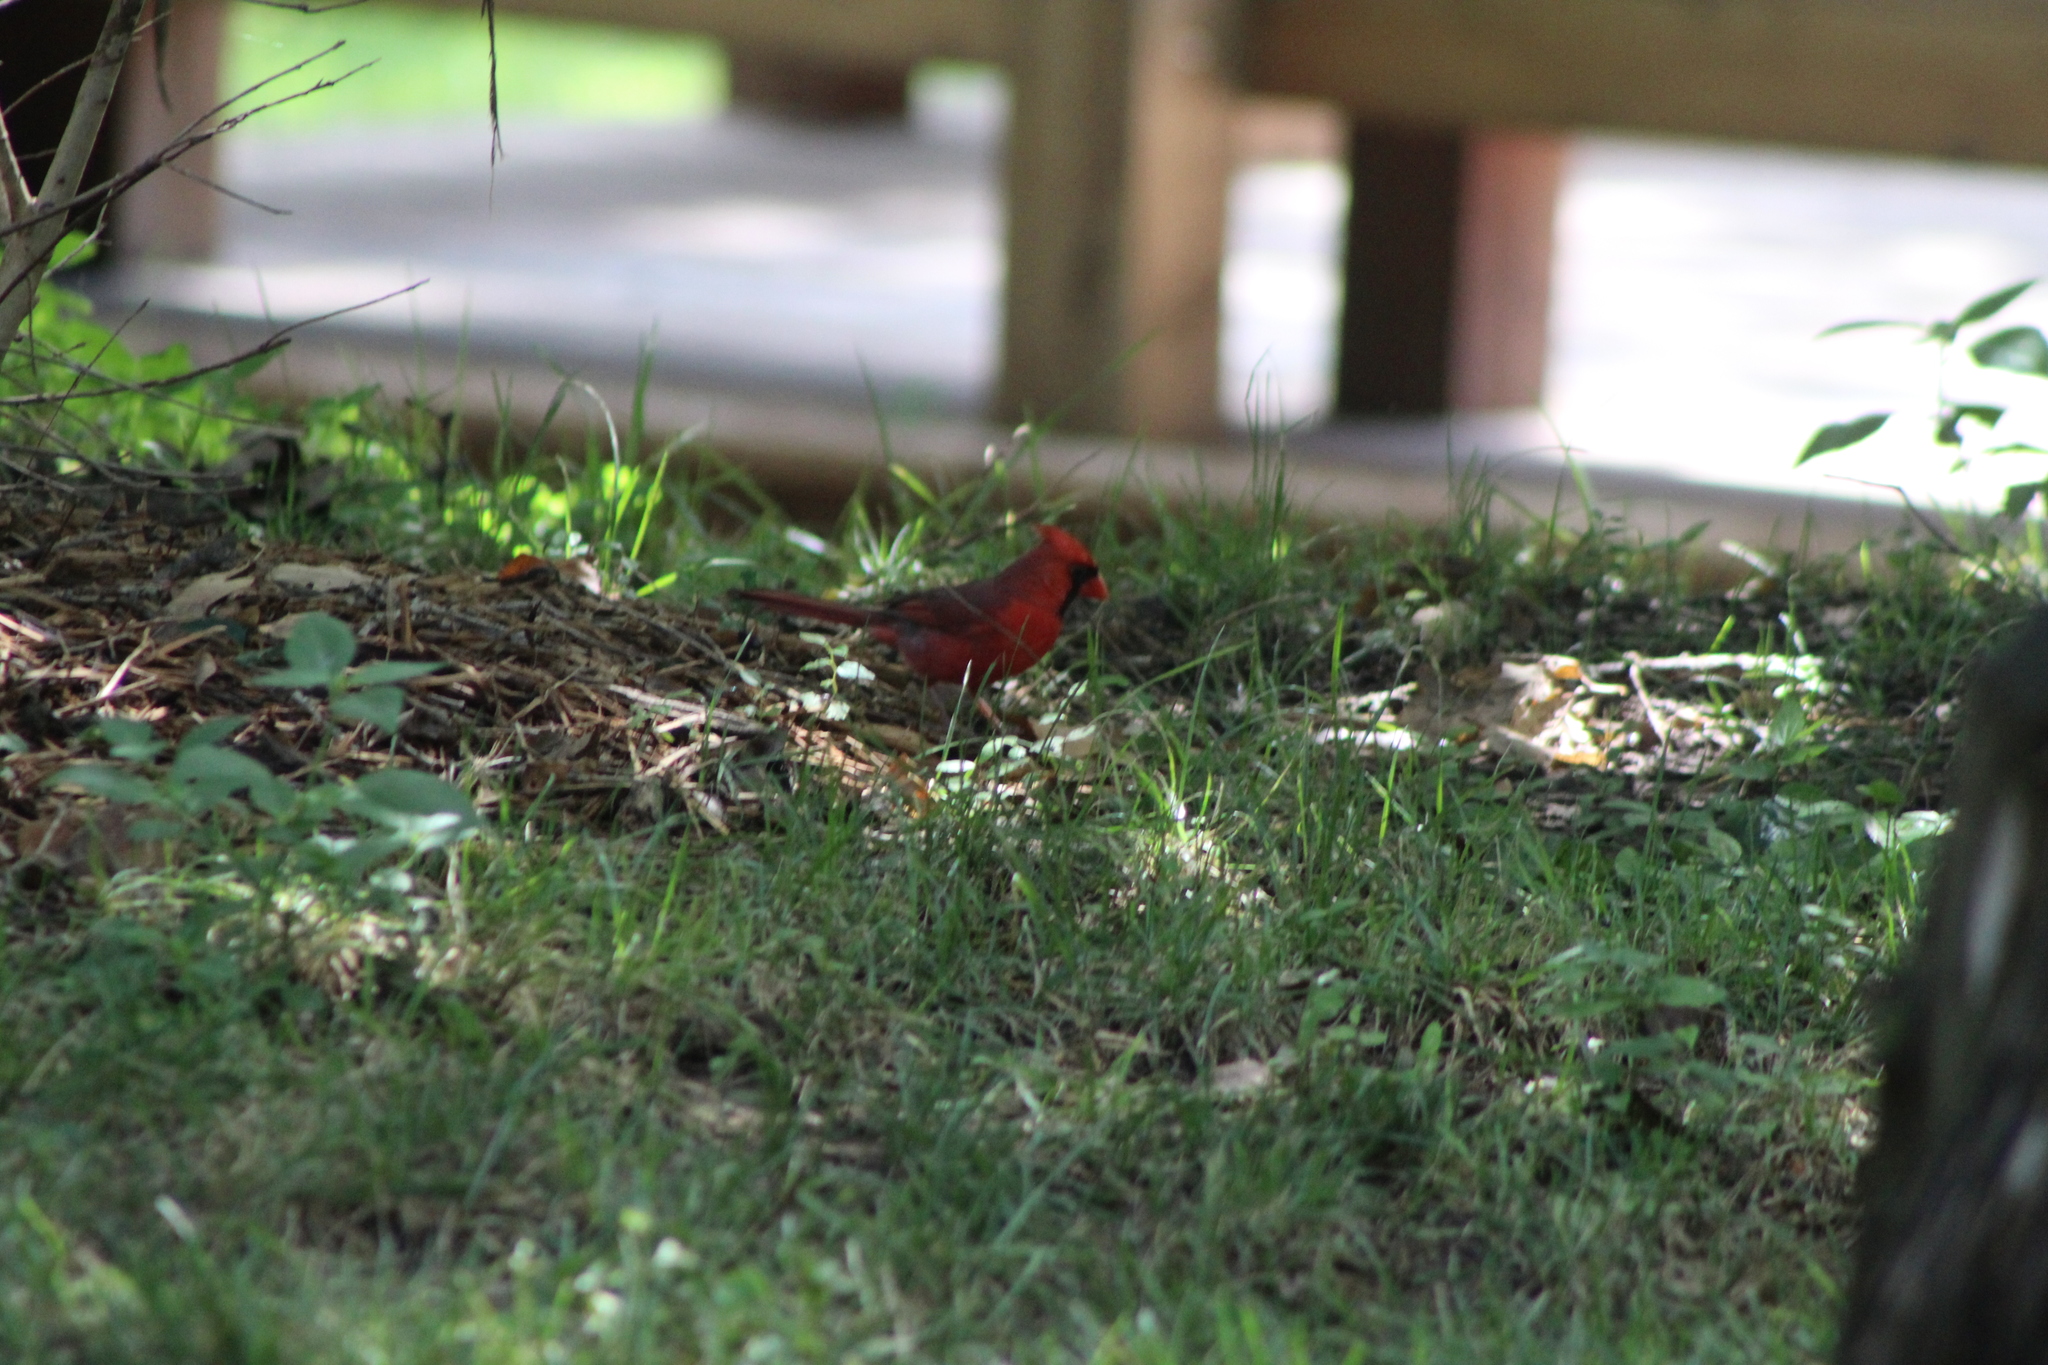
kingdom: Animalia
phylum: Chordata
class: Aves
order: Passeriformes
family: Cardinalidae
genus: Cardinalis
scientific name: Cardinalis cardinalis
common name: Northern cardinal
